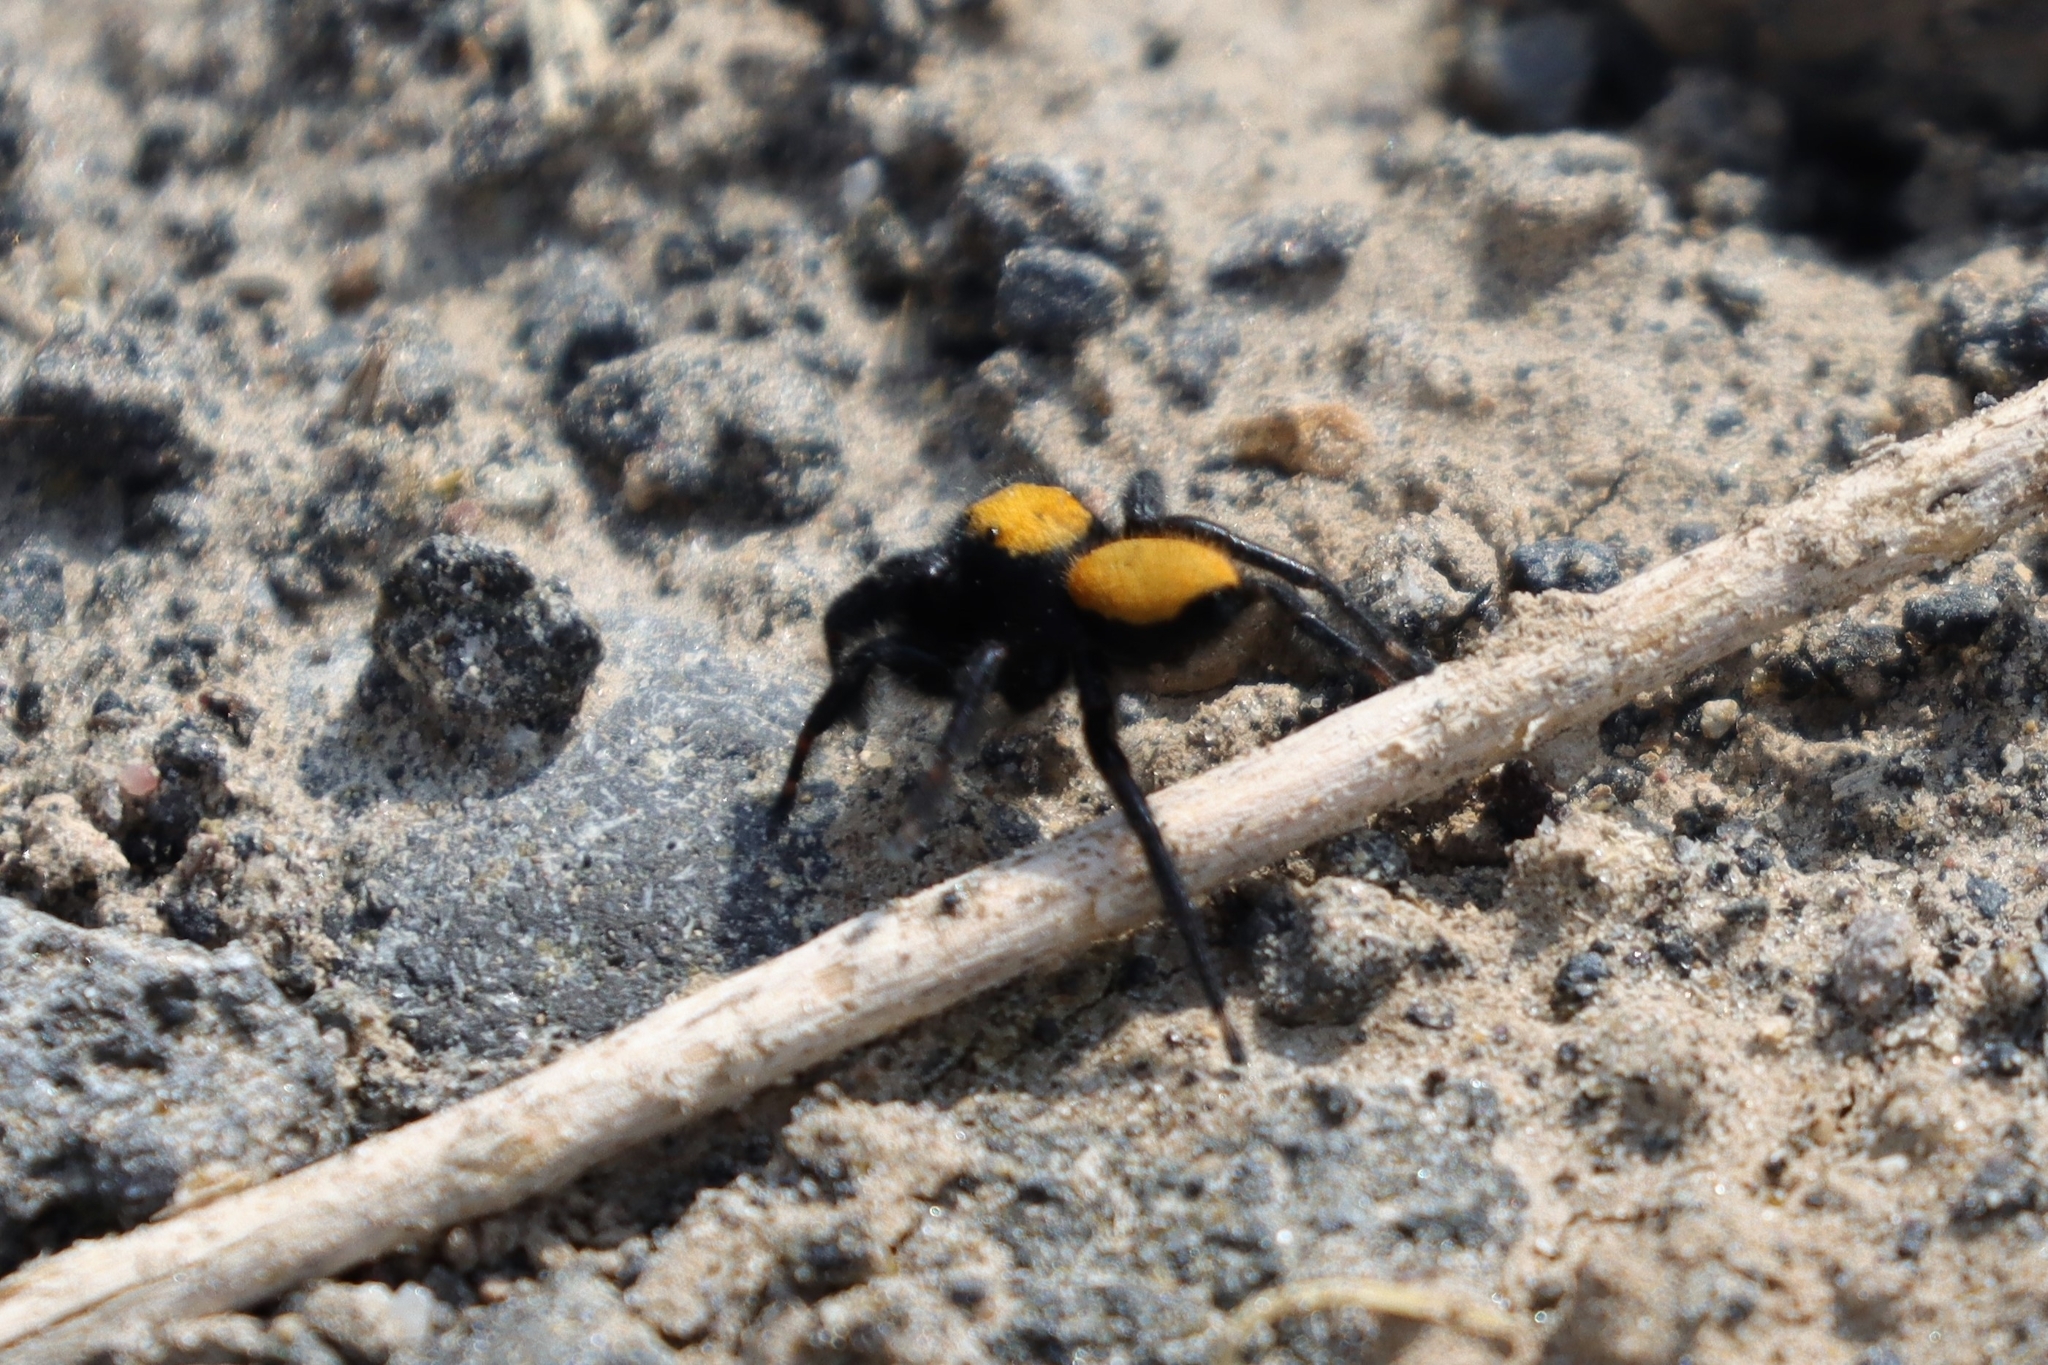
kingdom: Animalia
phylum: Arthropoda
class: Arachnida
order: Araneae
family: Salticidae
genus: Phidippus
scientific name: Phidippus nikites
